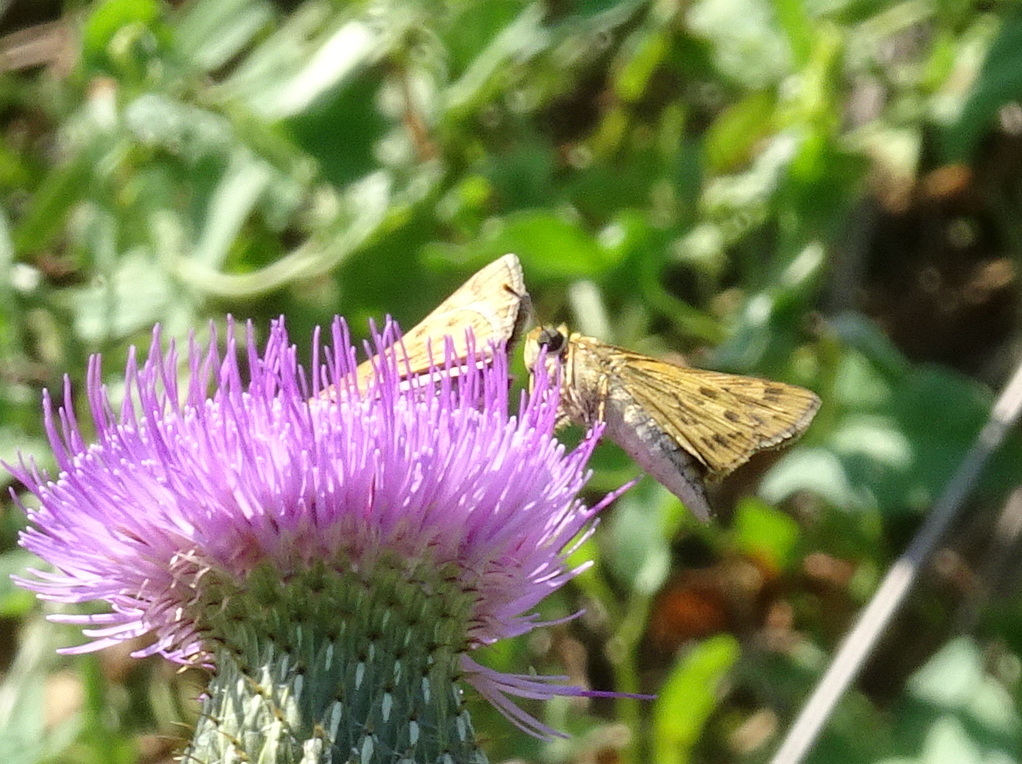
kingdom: Animalia
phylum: Arthropoda
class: Insecta
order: Lepidoptera
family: Hesperiidae
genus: Hylephila
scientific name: Hylephila phyleus
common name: Fiery skipper
